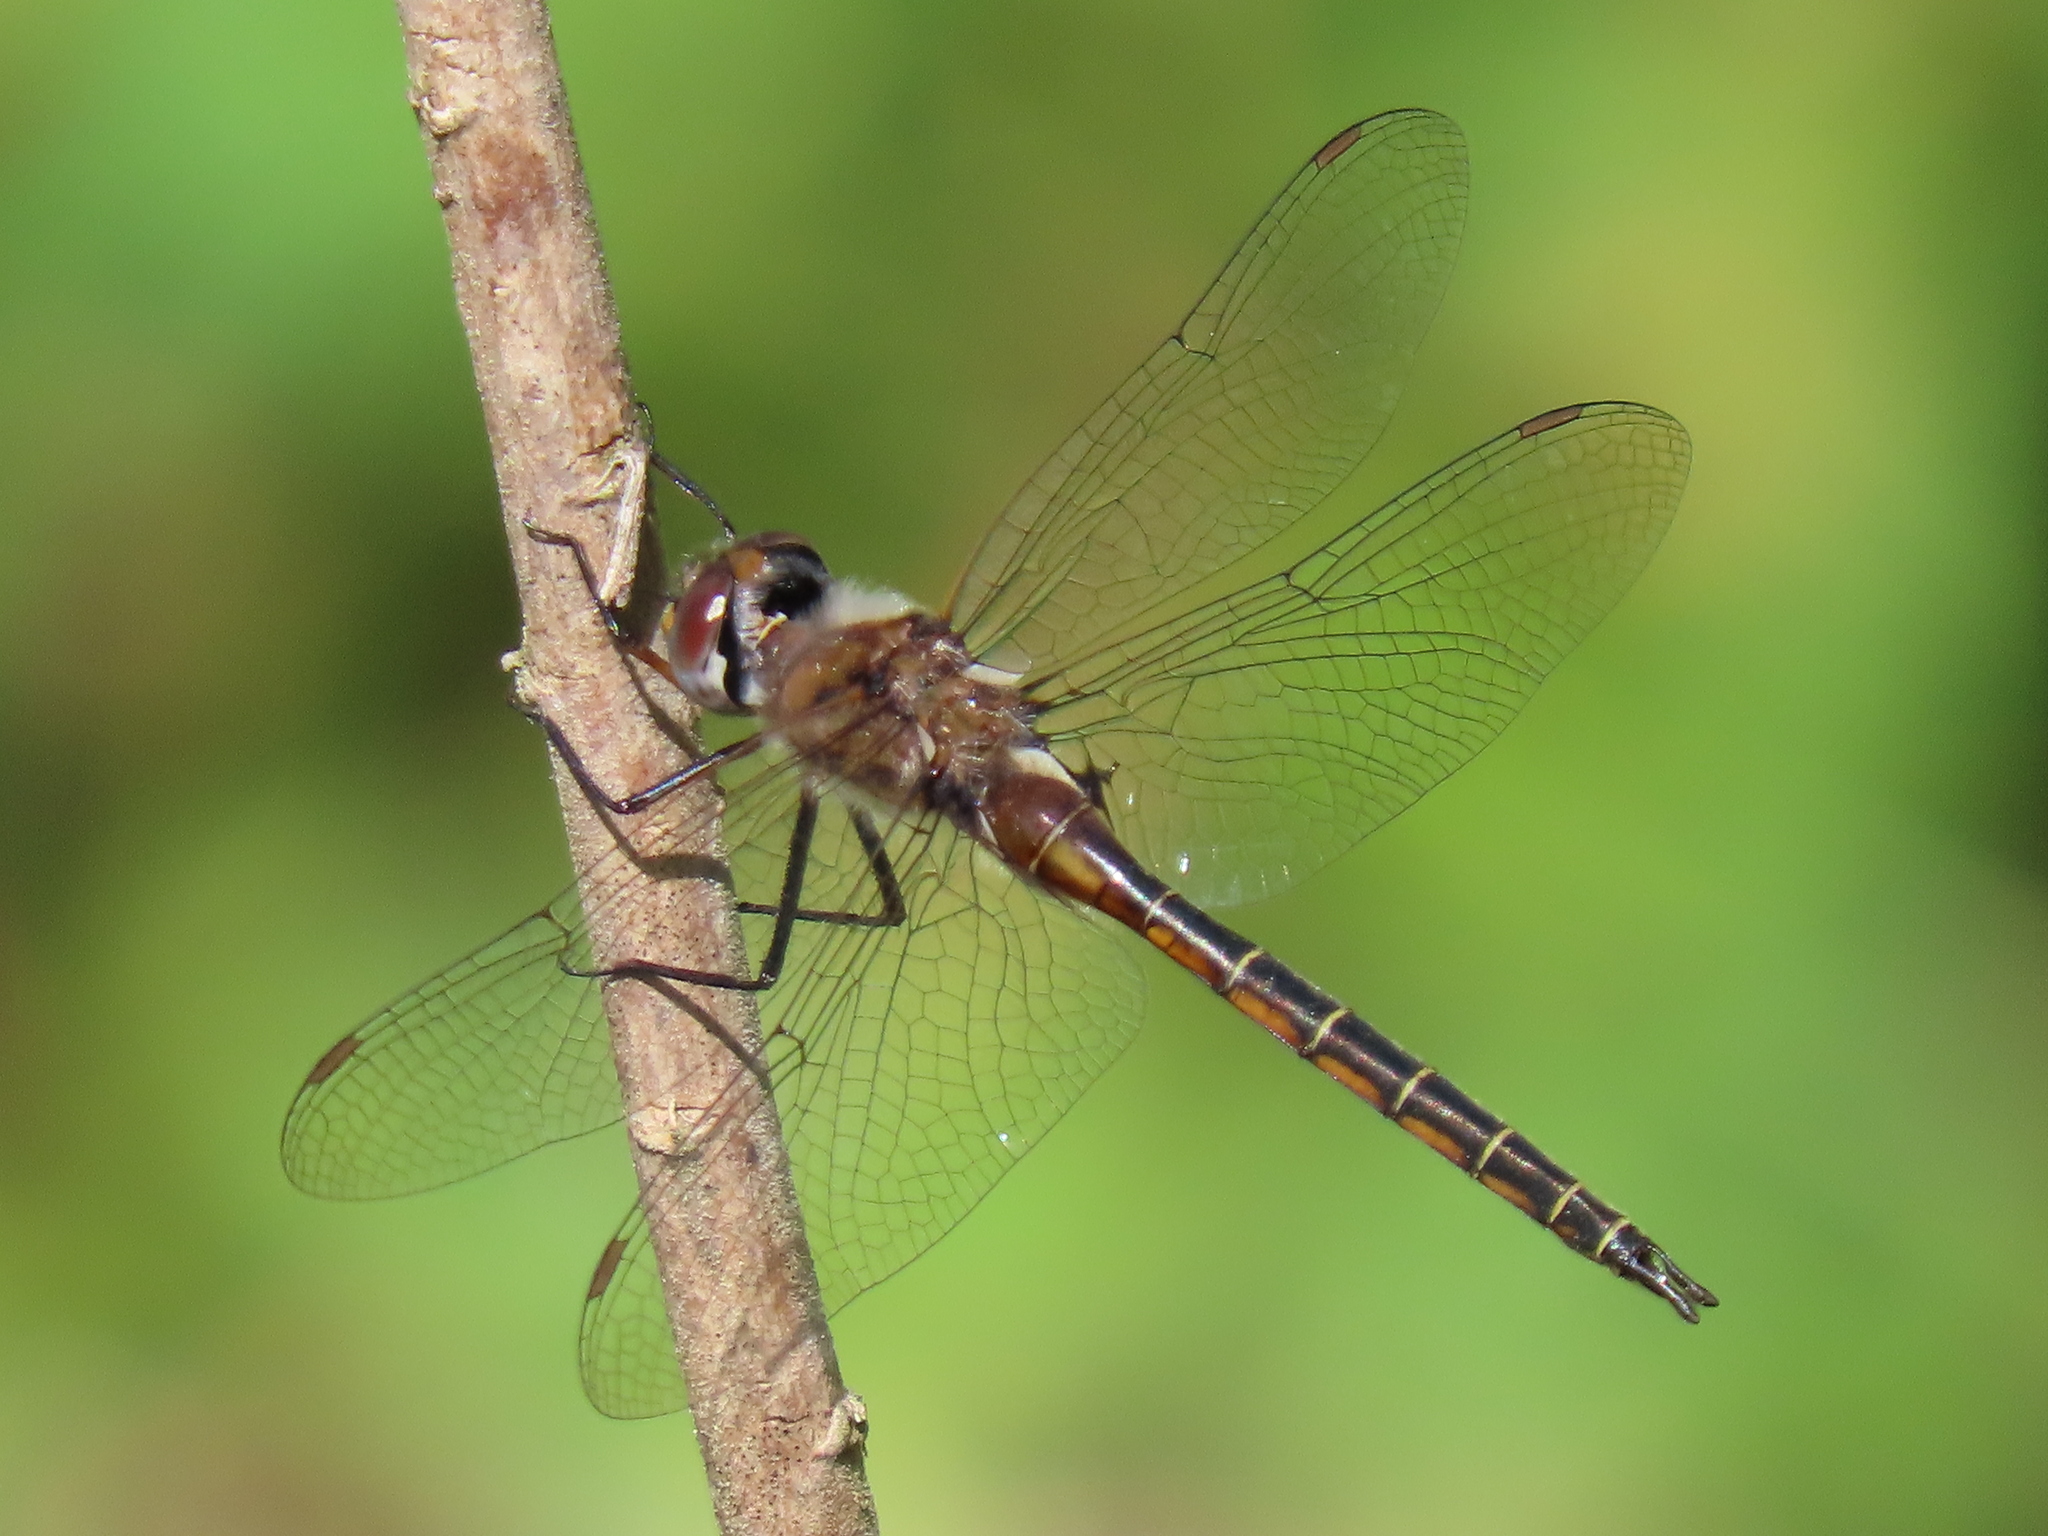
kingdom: Animalia
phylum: Arthropoda
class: Insecta
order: Odonata
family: Corduliidae
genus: Epitheca
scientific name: Epitheca costalis
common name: Slender baskettail
